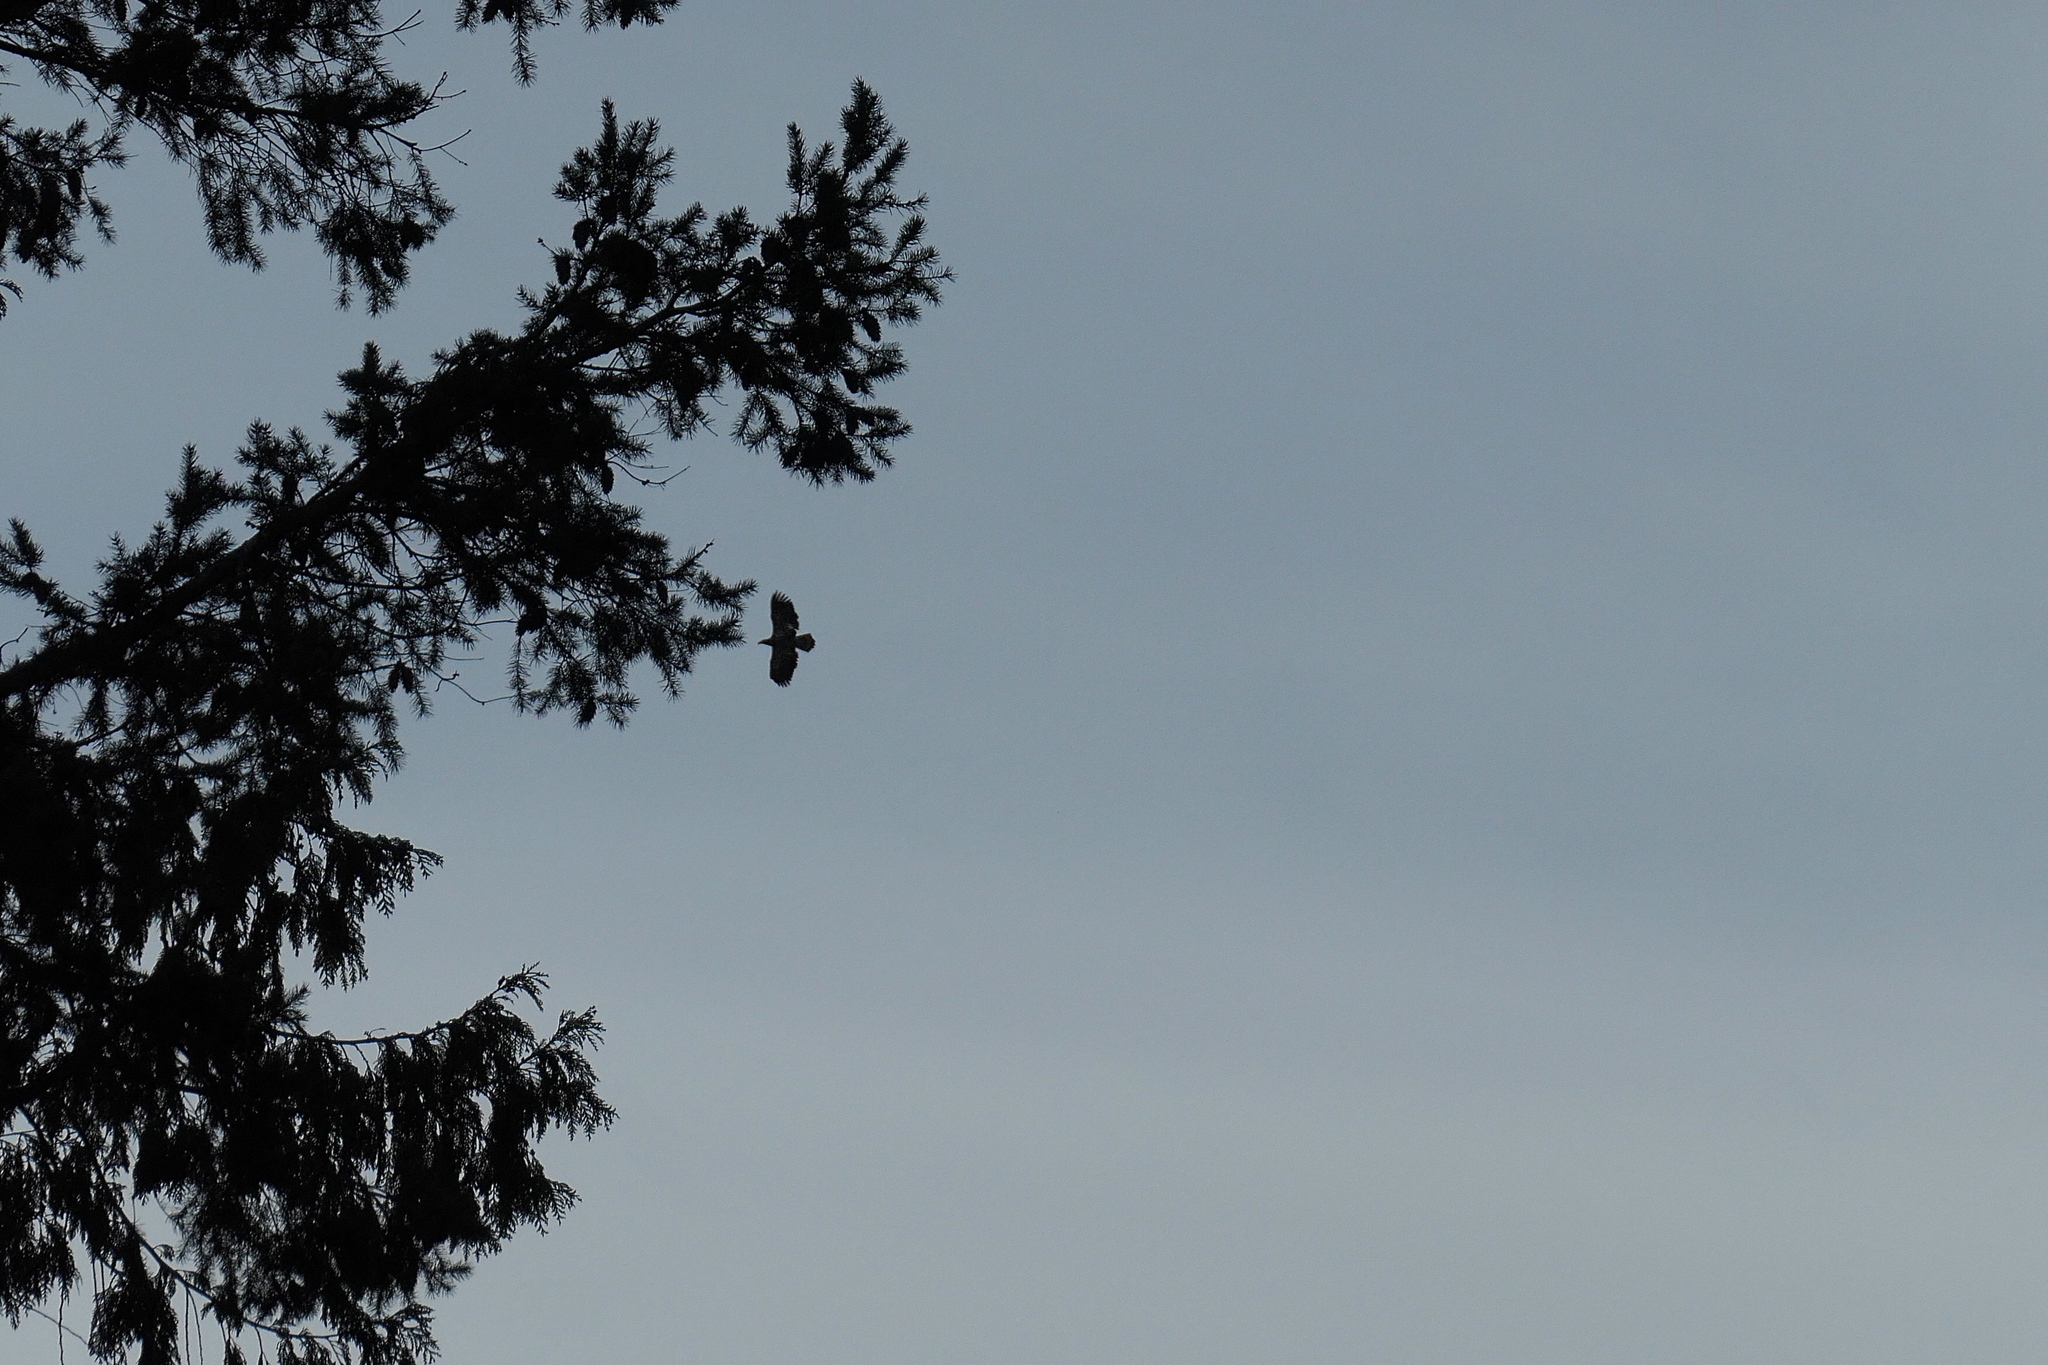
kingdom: Animalia
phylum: Chordata
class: Aves
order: Accipitriformes
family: Accipitridae
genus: Haliaeetus
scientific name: Haliaeetus leucocephalus
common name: Bald eagle
